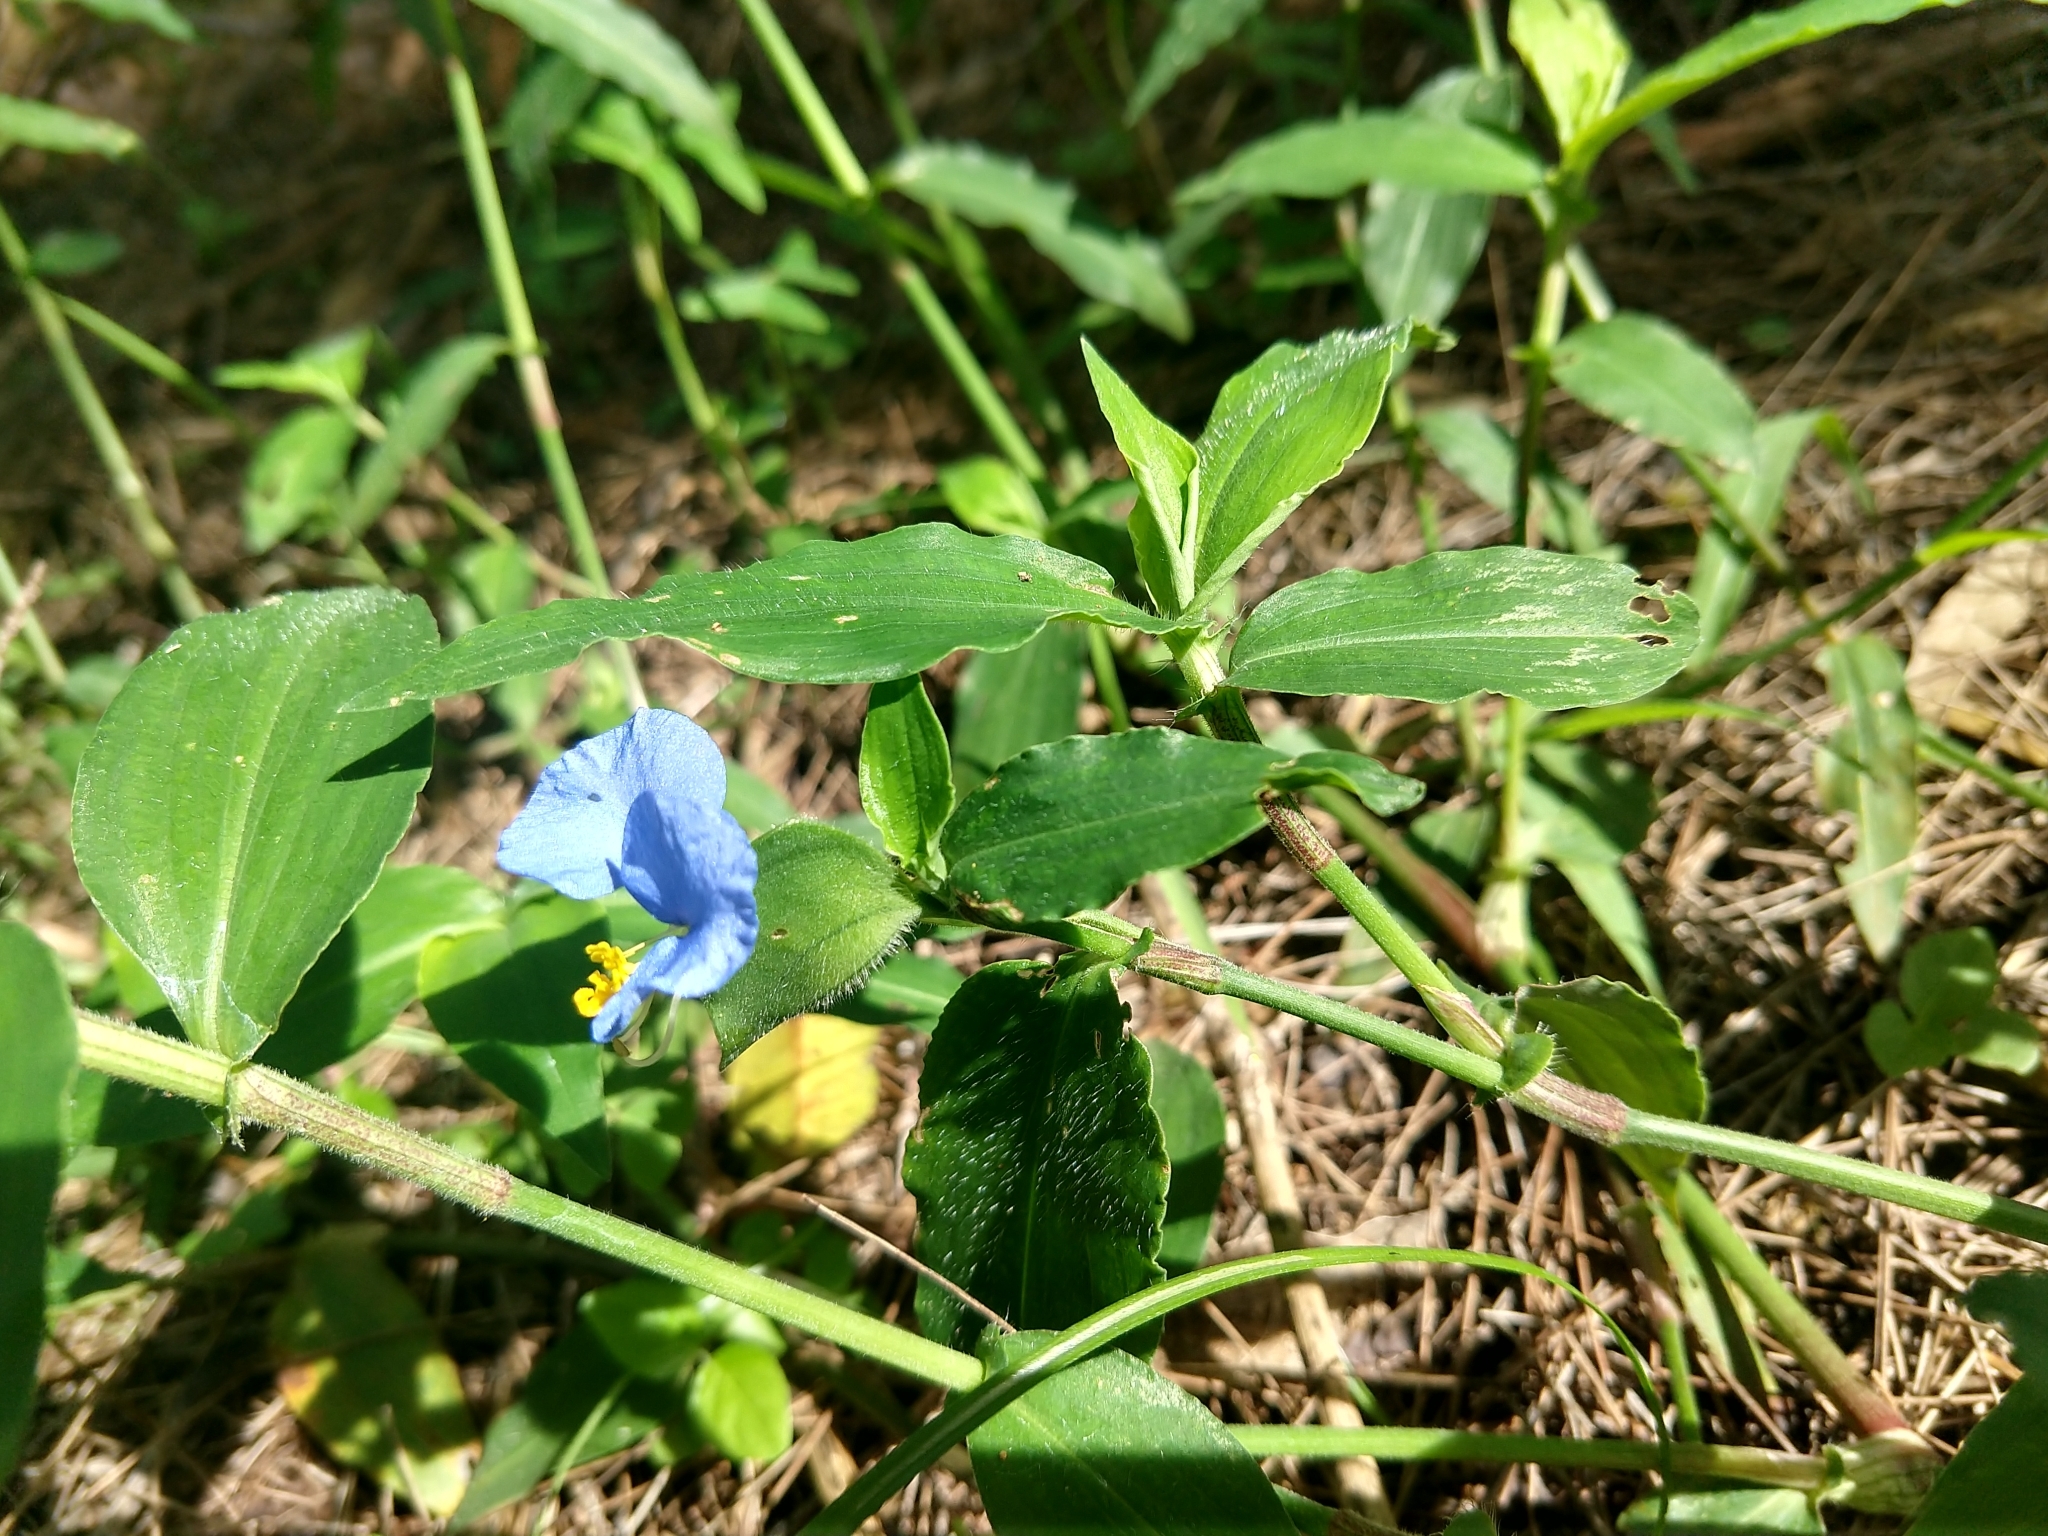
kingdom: Plantae
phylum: Tracheophyta
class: Liliopsida
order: Commelinales
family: Commelinaceae
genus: Commelina
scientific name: Commelina erecta
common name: Blousel blommetjie
